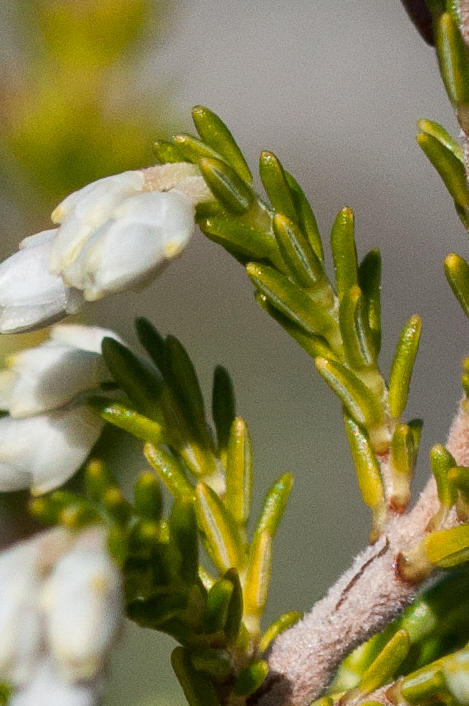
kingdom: Plantae
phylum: Tracheophyta
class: Magnoliopsida
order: Ericales
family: Ericaceae
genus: Erica
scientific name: Erica imbricata
